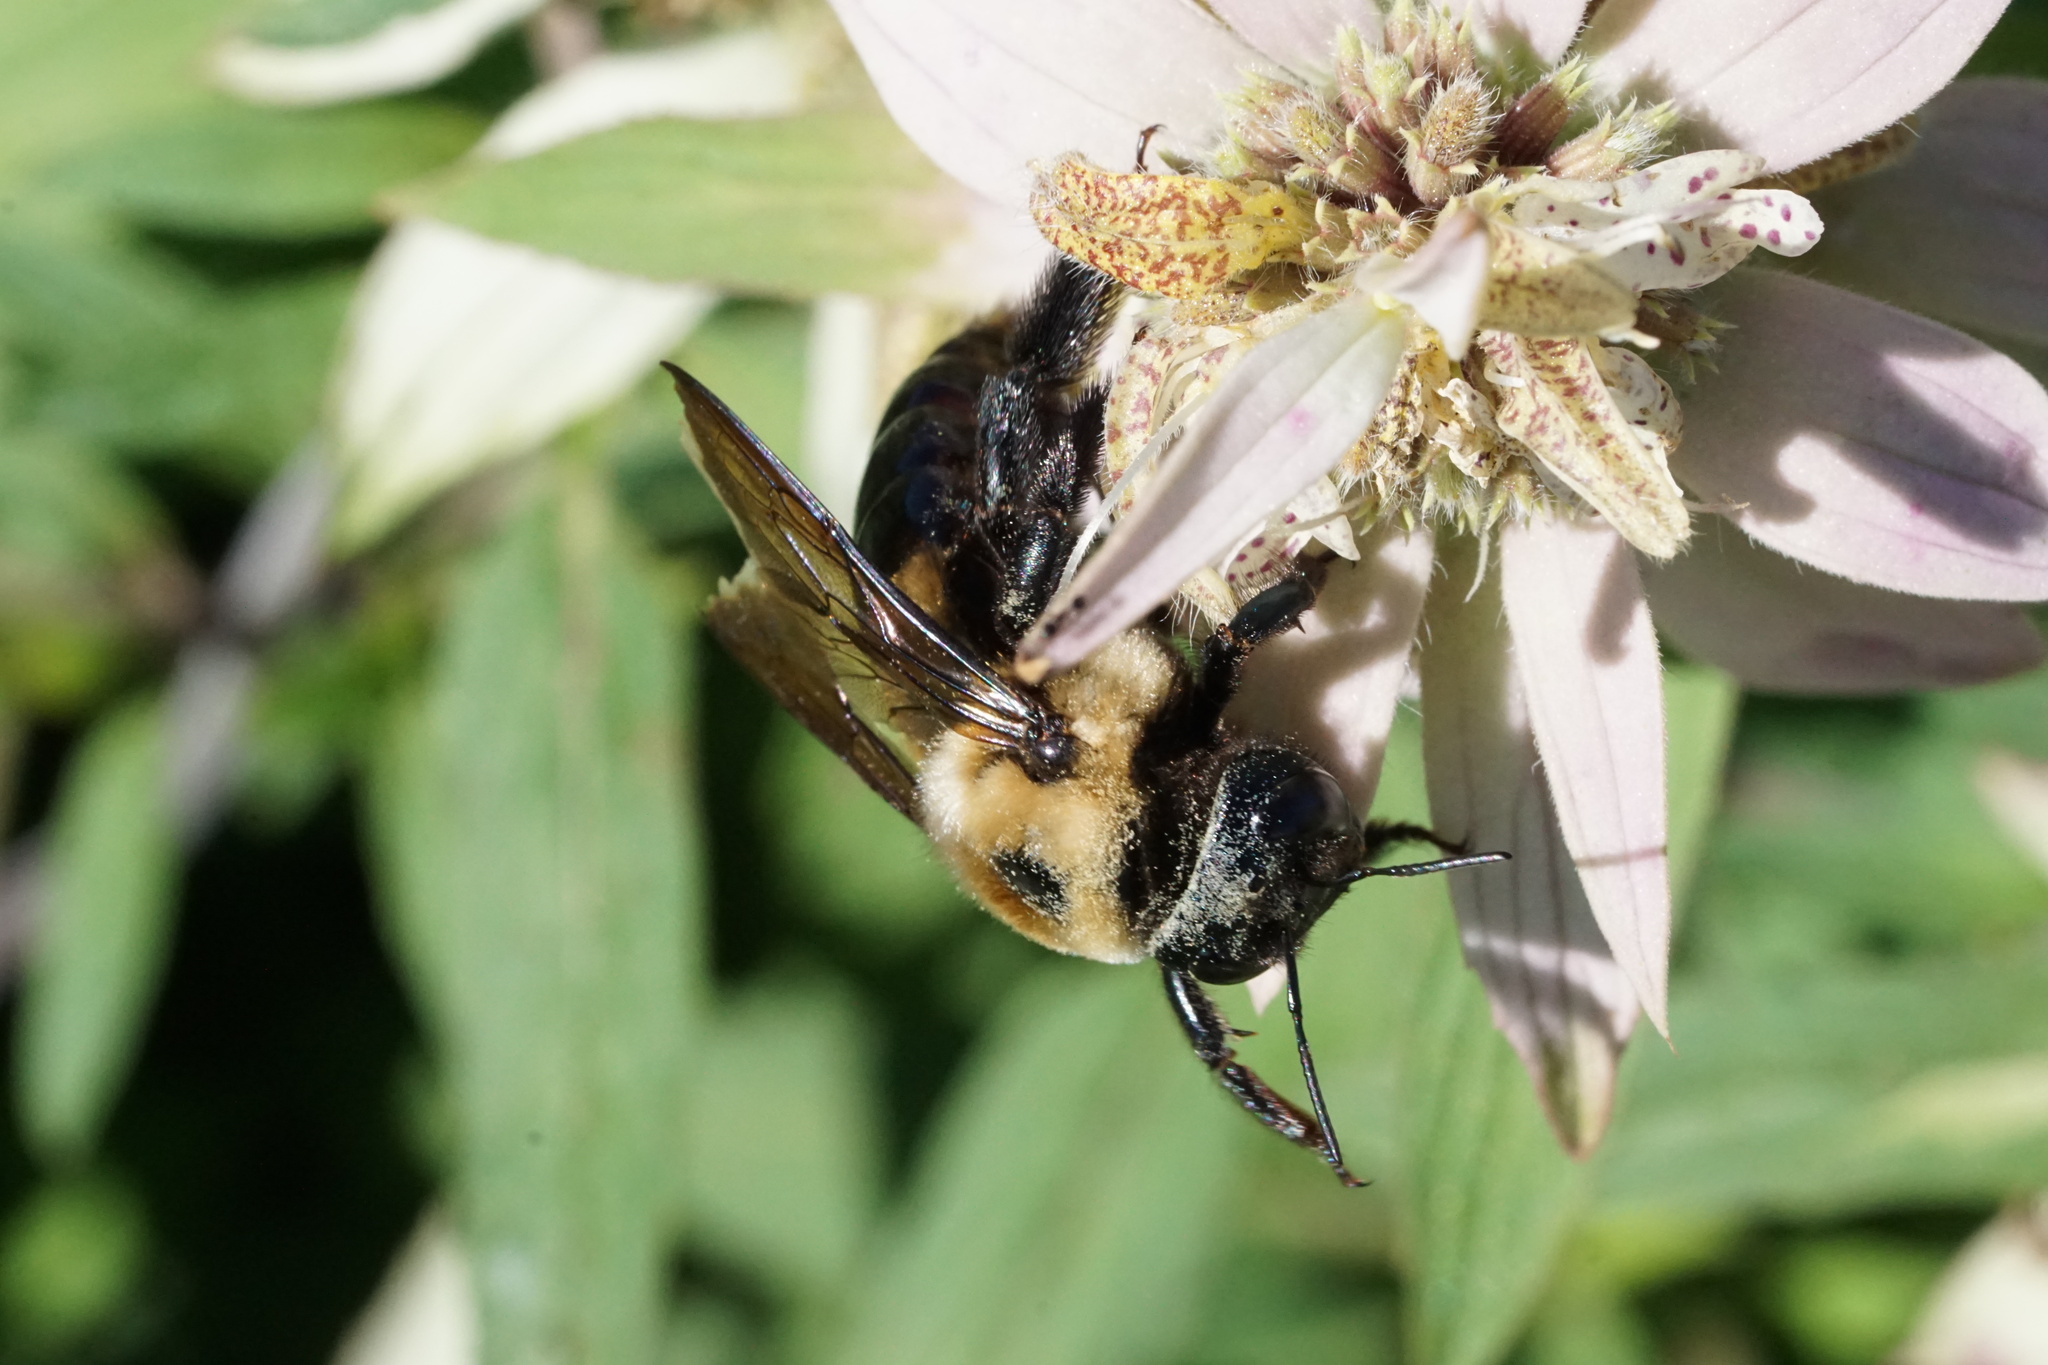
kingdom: Animalia
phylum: Arthropoda
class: Insecta
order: Hymenoptera
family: Apidae
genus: Xylocopa
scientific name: Xylocopa virginica
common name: Carpenter bee
